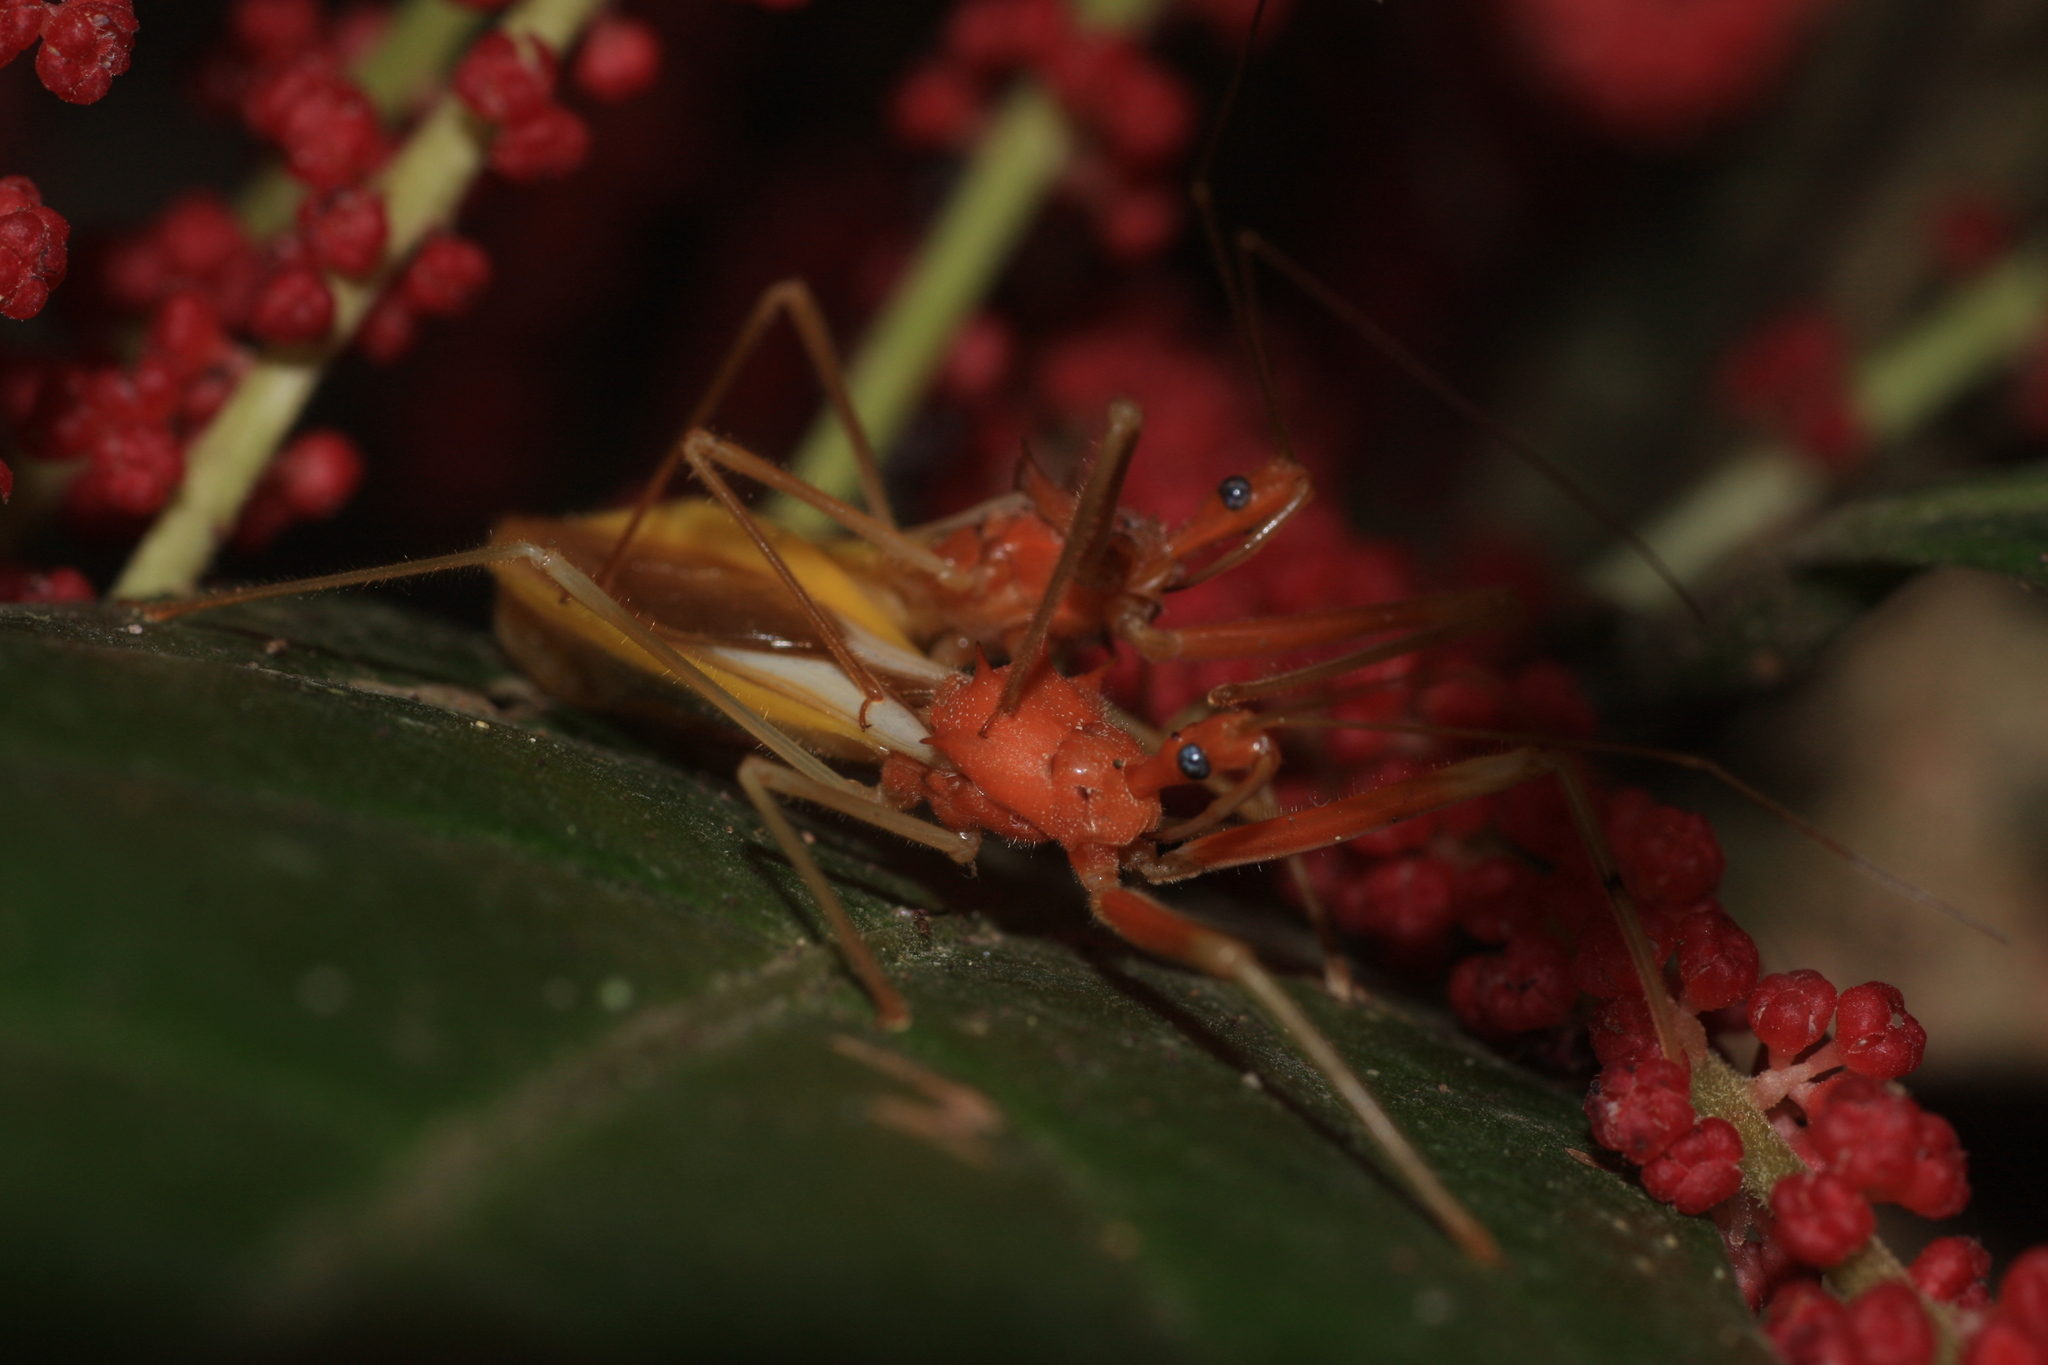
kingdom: Animalia
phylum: Arthropoda
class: Insecta
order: Hemiptera
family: Reduviidae
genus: Epidaus
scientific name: Epidaus bicolor
